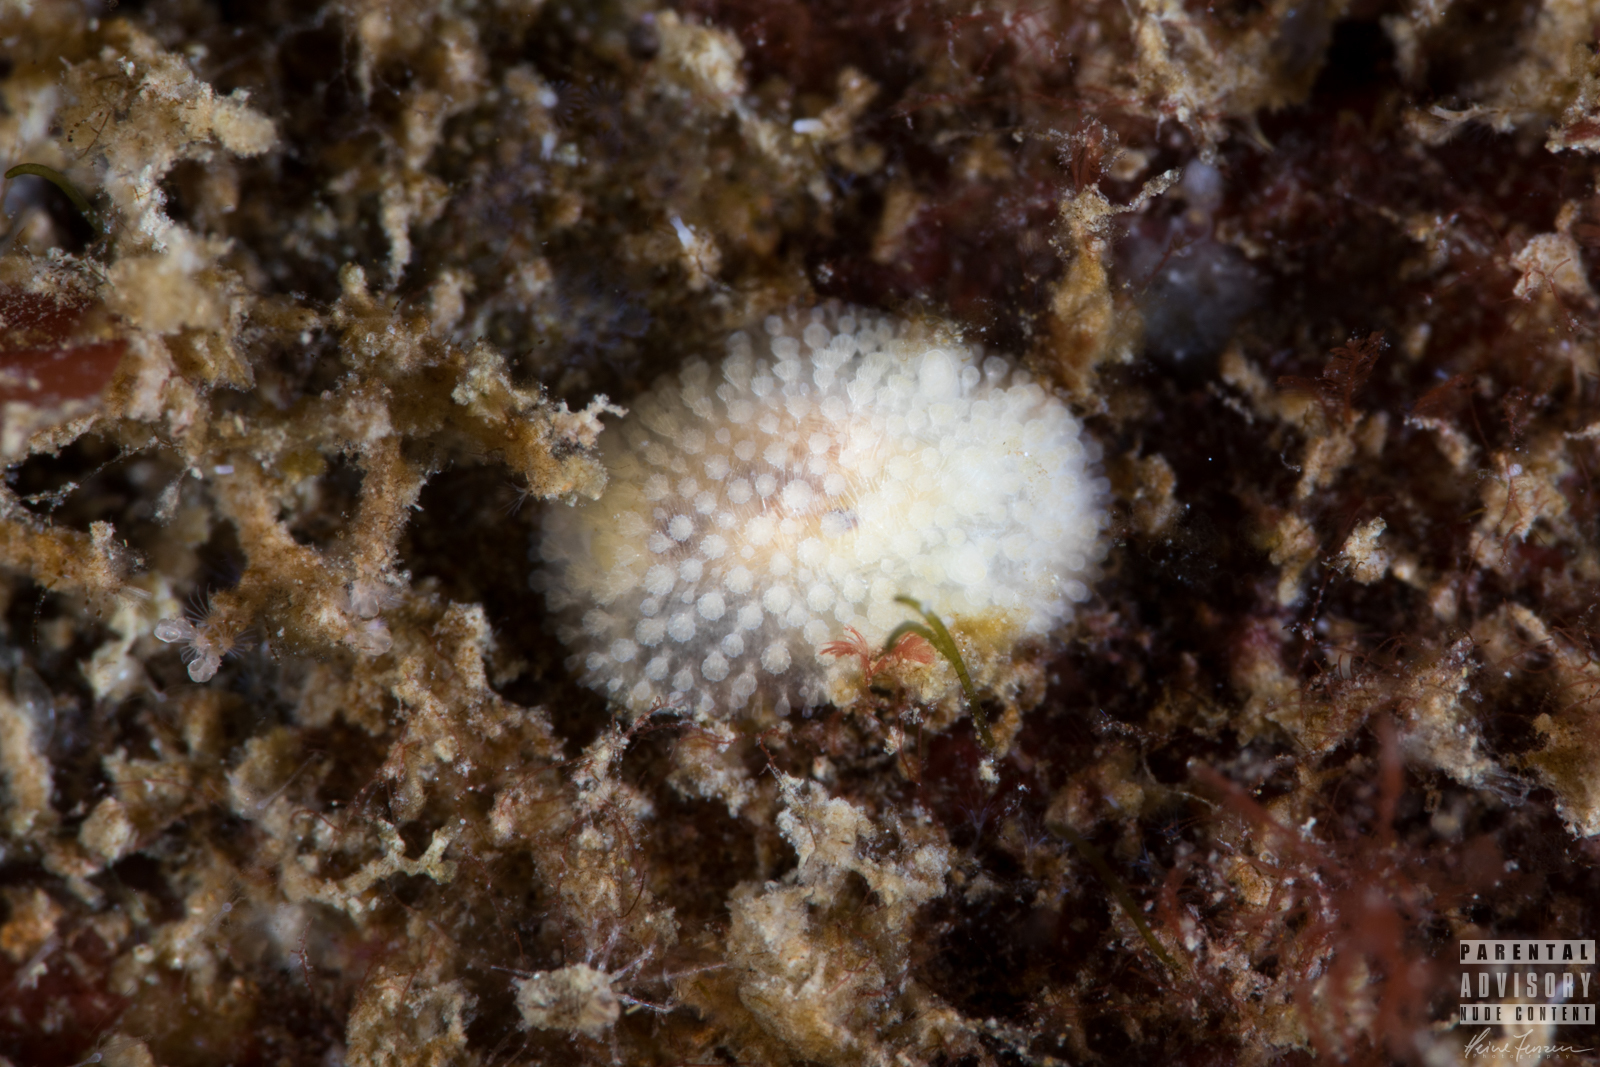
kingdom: Animalia
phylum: Mollusca
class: Gastropoda
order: Nudibranchia
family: Onchidorididae
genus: Onchidoris
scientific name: Onchidoris muricata
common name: Rough doris
